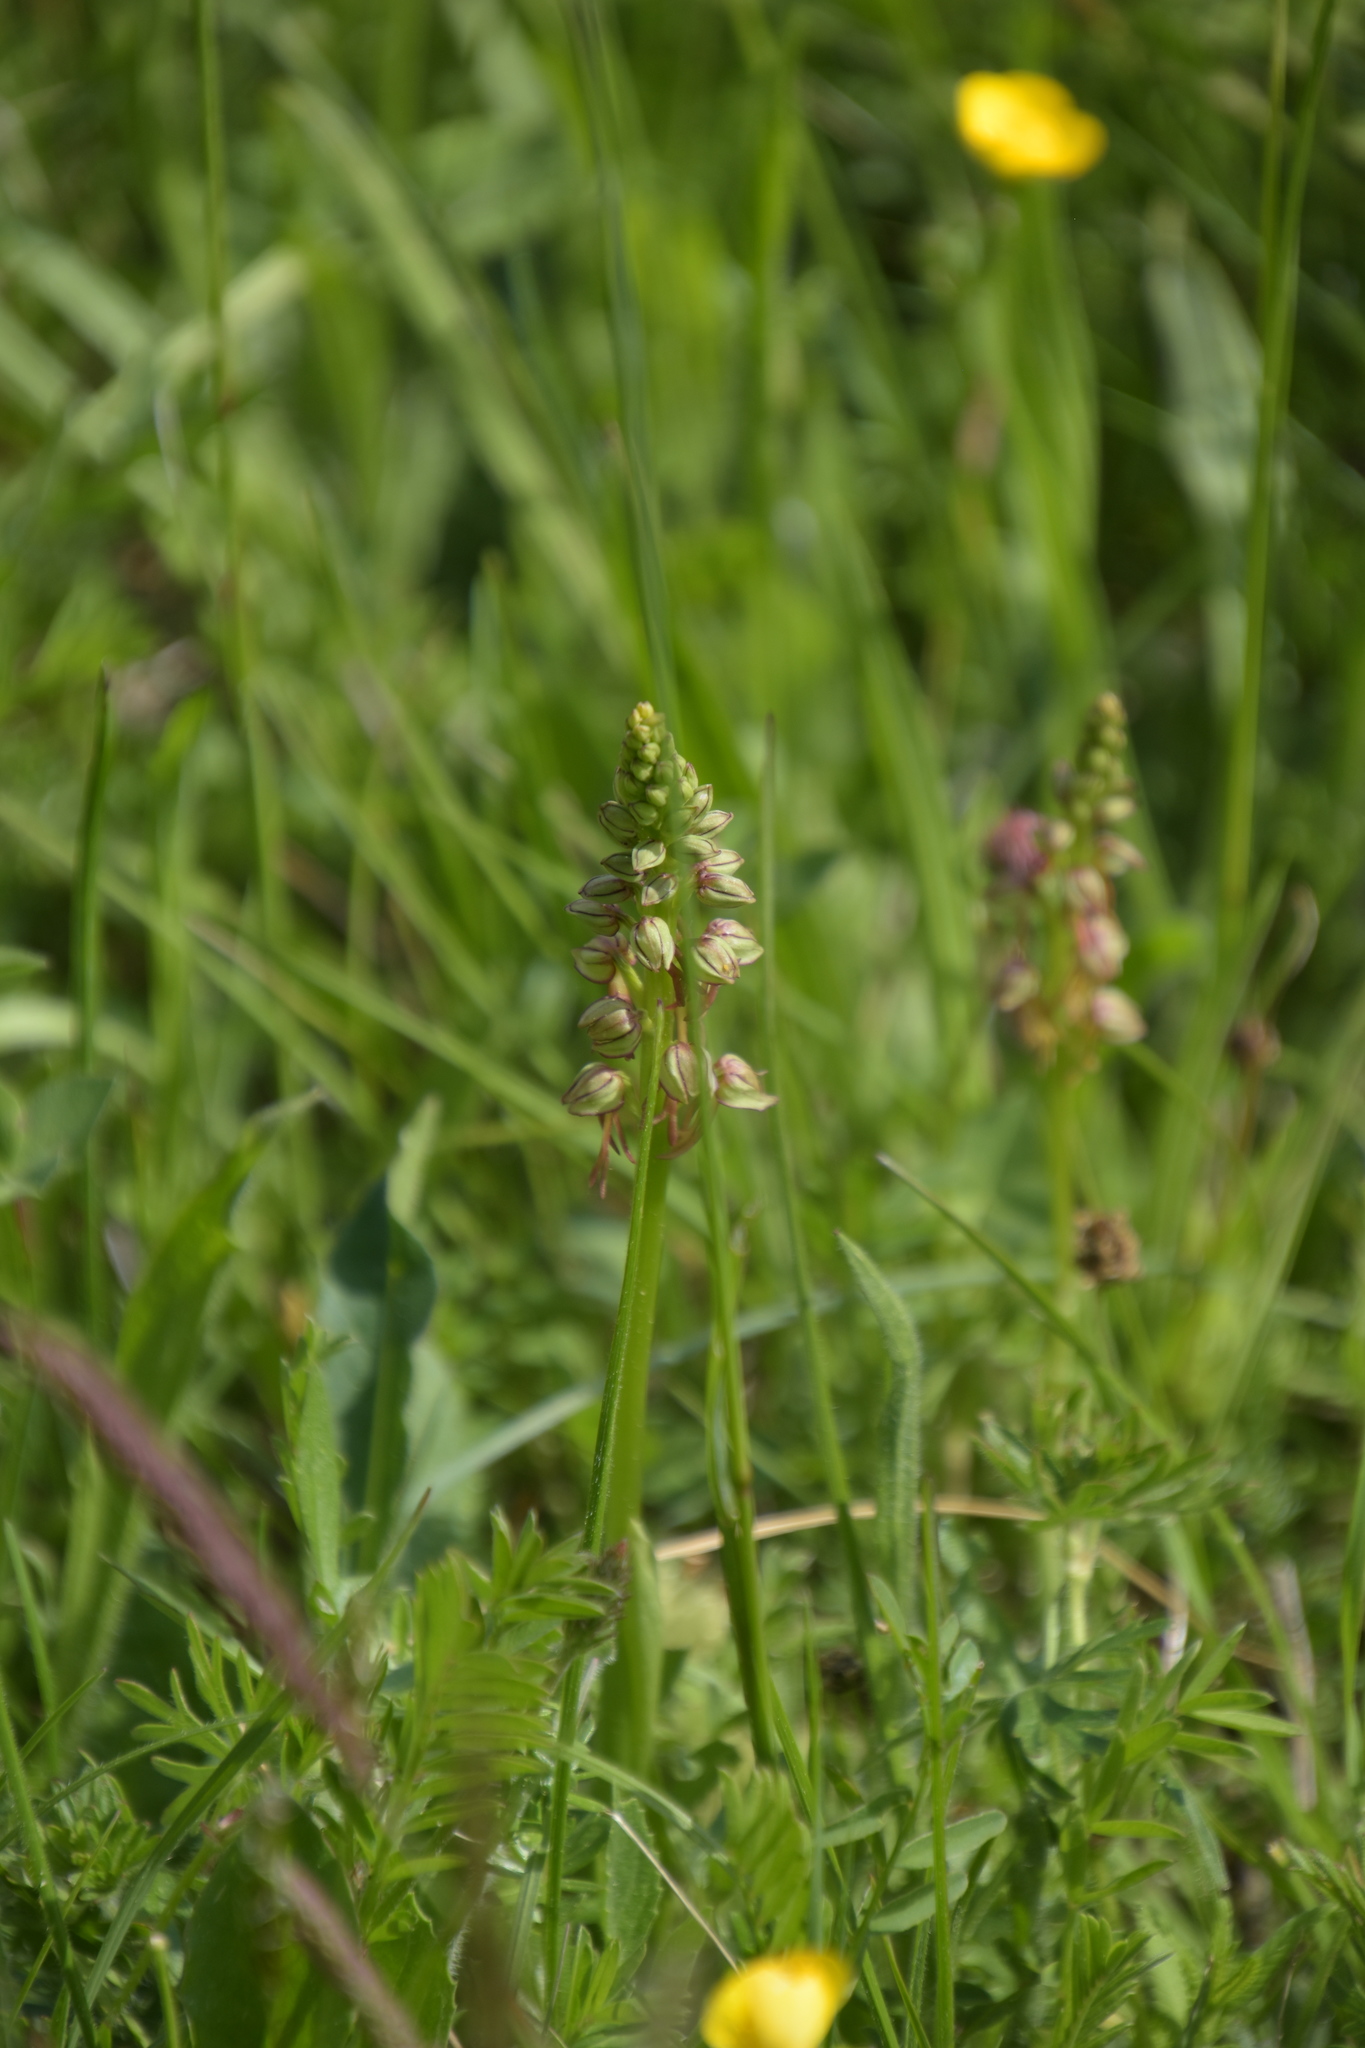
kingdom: Plantae
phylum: Tracheophyta
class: Liliopsida
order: Asparagales
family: Orchidaceae
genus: Orchis
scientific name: Orchis anthropophora
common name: Man orchid
